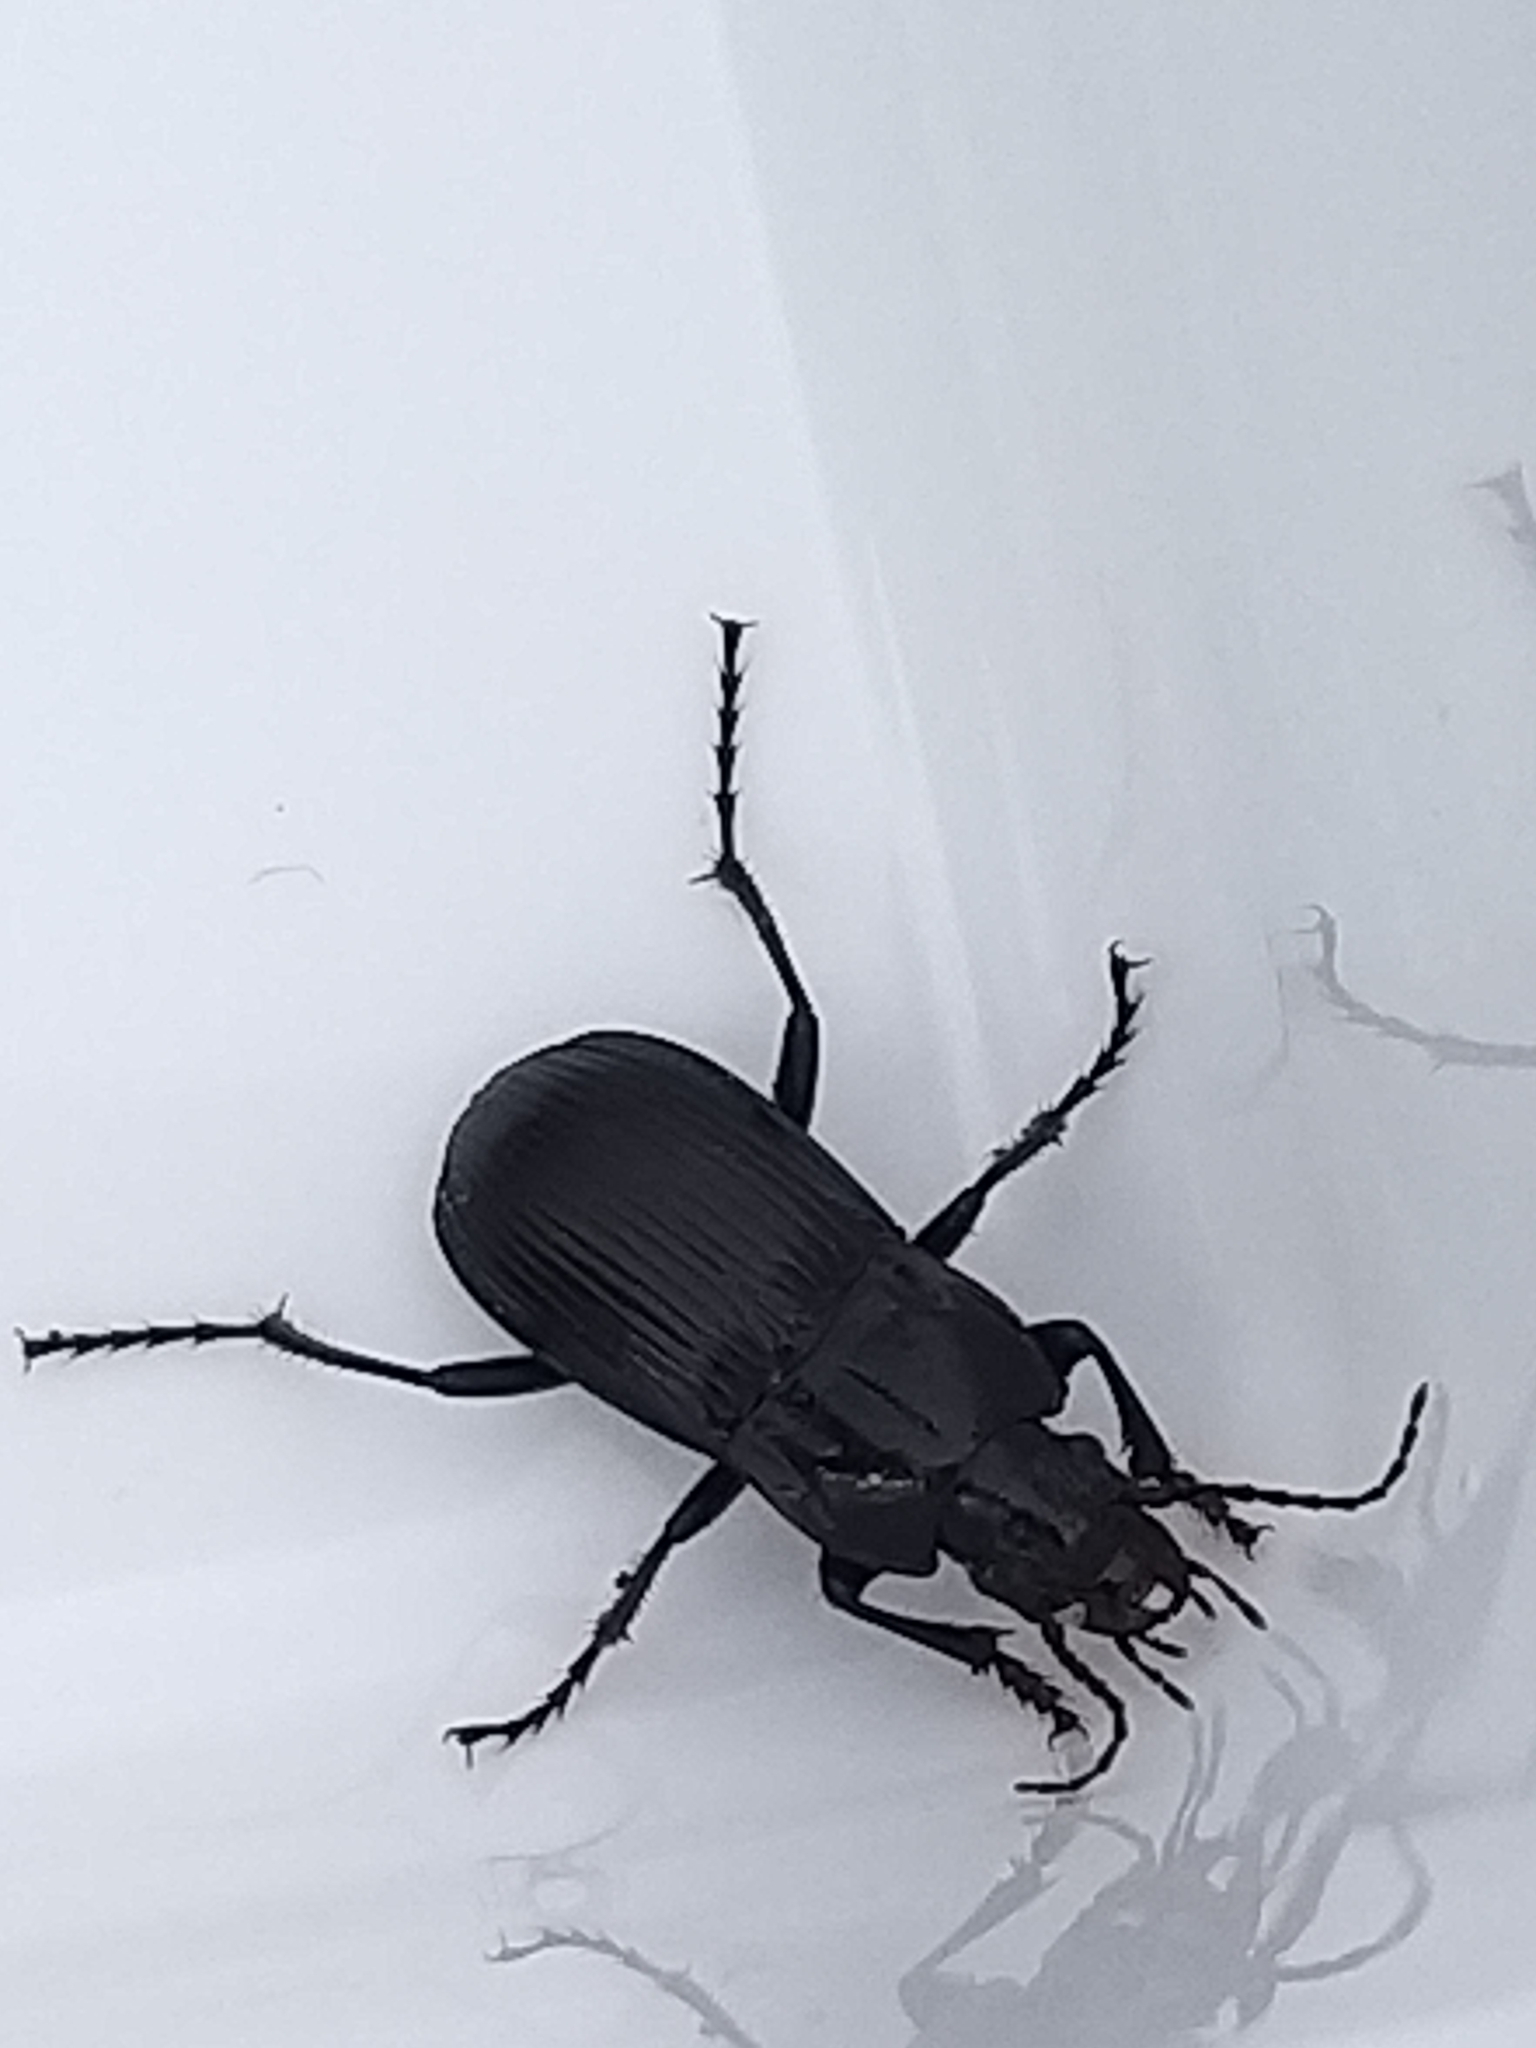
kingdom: Animalia
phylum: Arthropoda
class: Insecta
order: Coleoptera
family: Carabidae
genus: Abax
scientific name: Abax parallelepipedus
